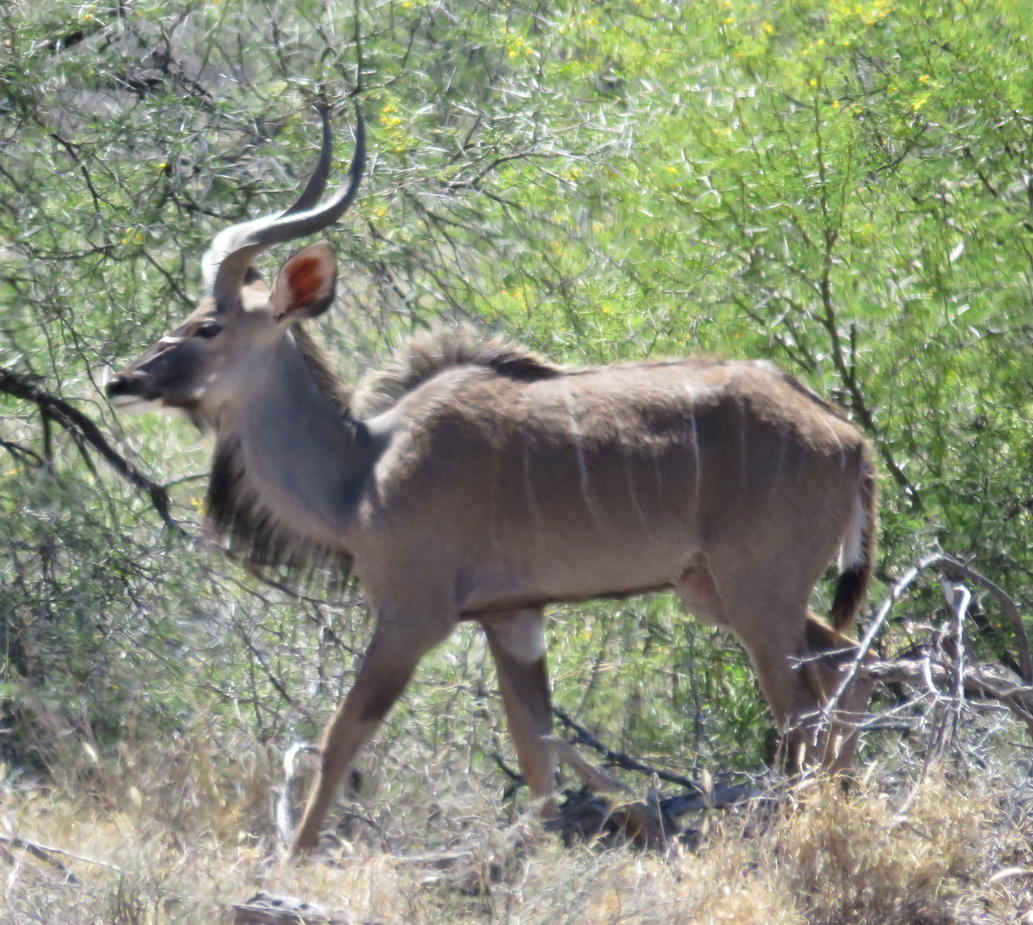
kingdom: Animalia
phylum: Chordata
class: Mammalia
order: Artiodactyla
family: Bovidae
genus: Tragelaphus
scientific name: Tragelaphus strepsiceros
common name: Greater kudu
